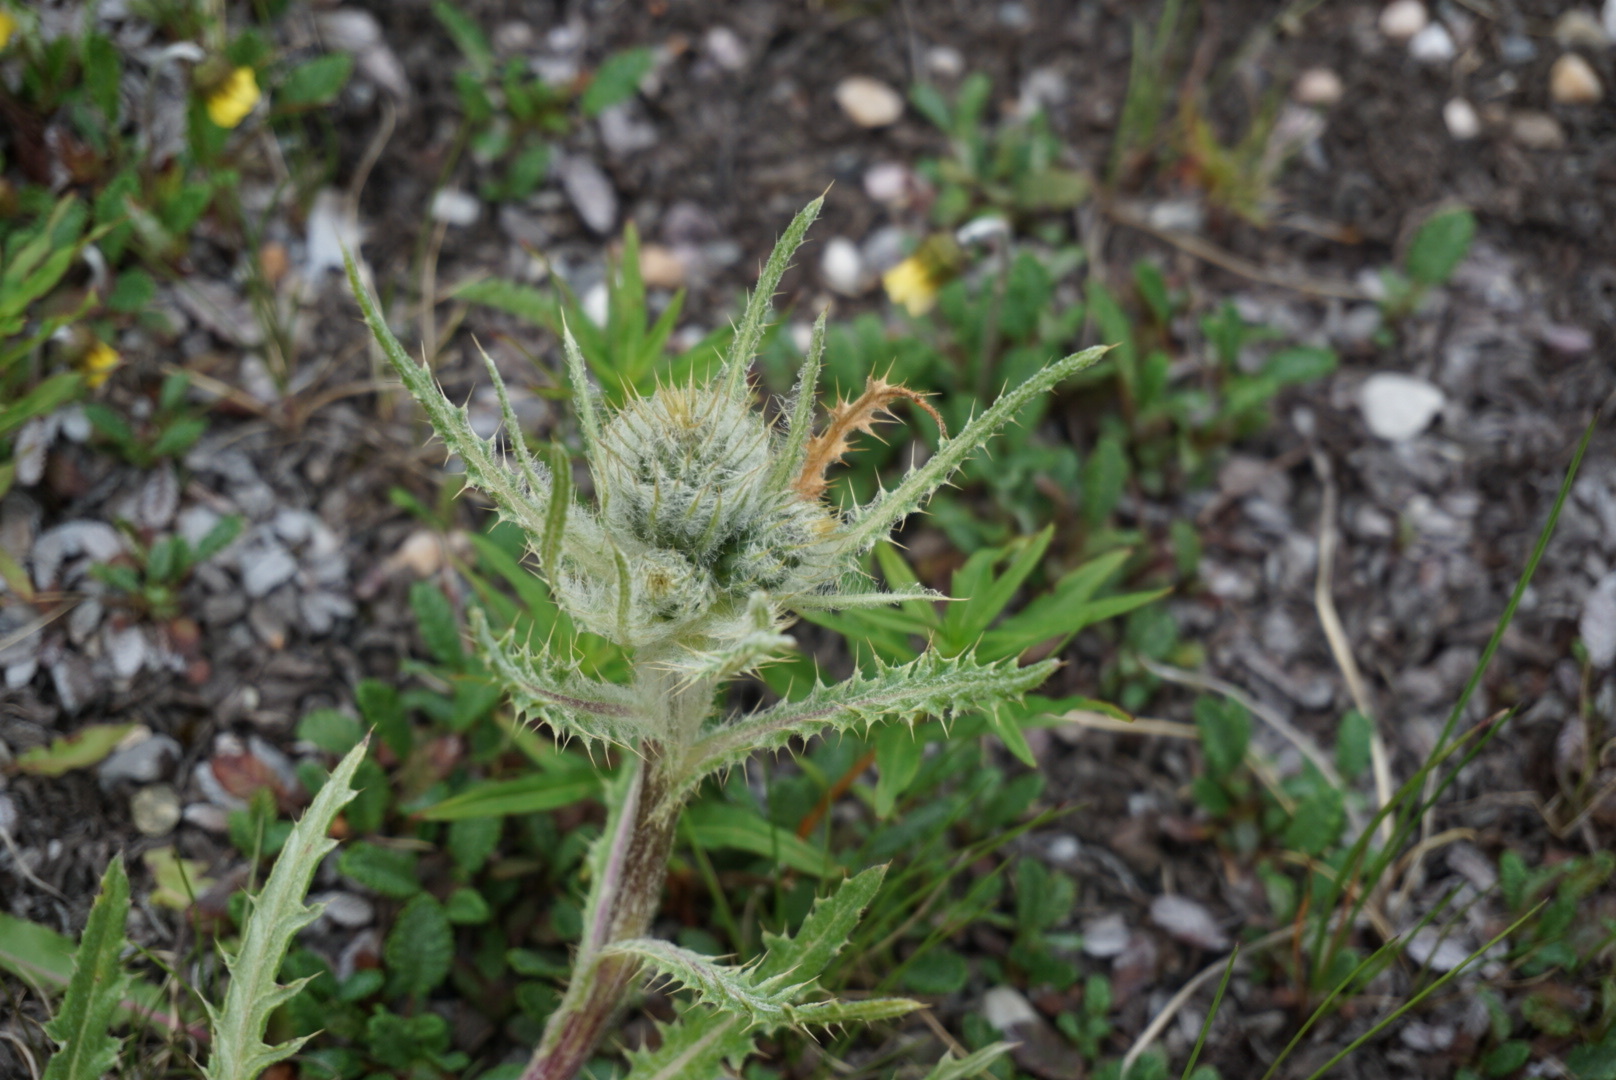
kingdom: Plantae
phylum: Tracheophyta
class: Magnoliopsida
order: Asterales
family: Asteraceae
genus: Cirsium
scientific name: Cirsium hookerianum
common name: Hooker's thistle
